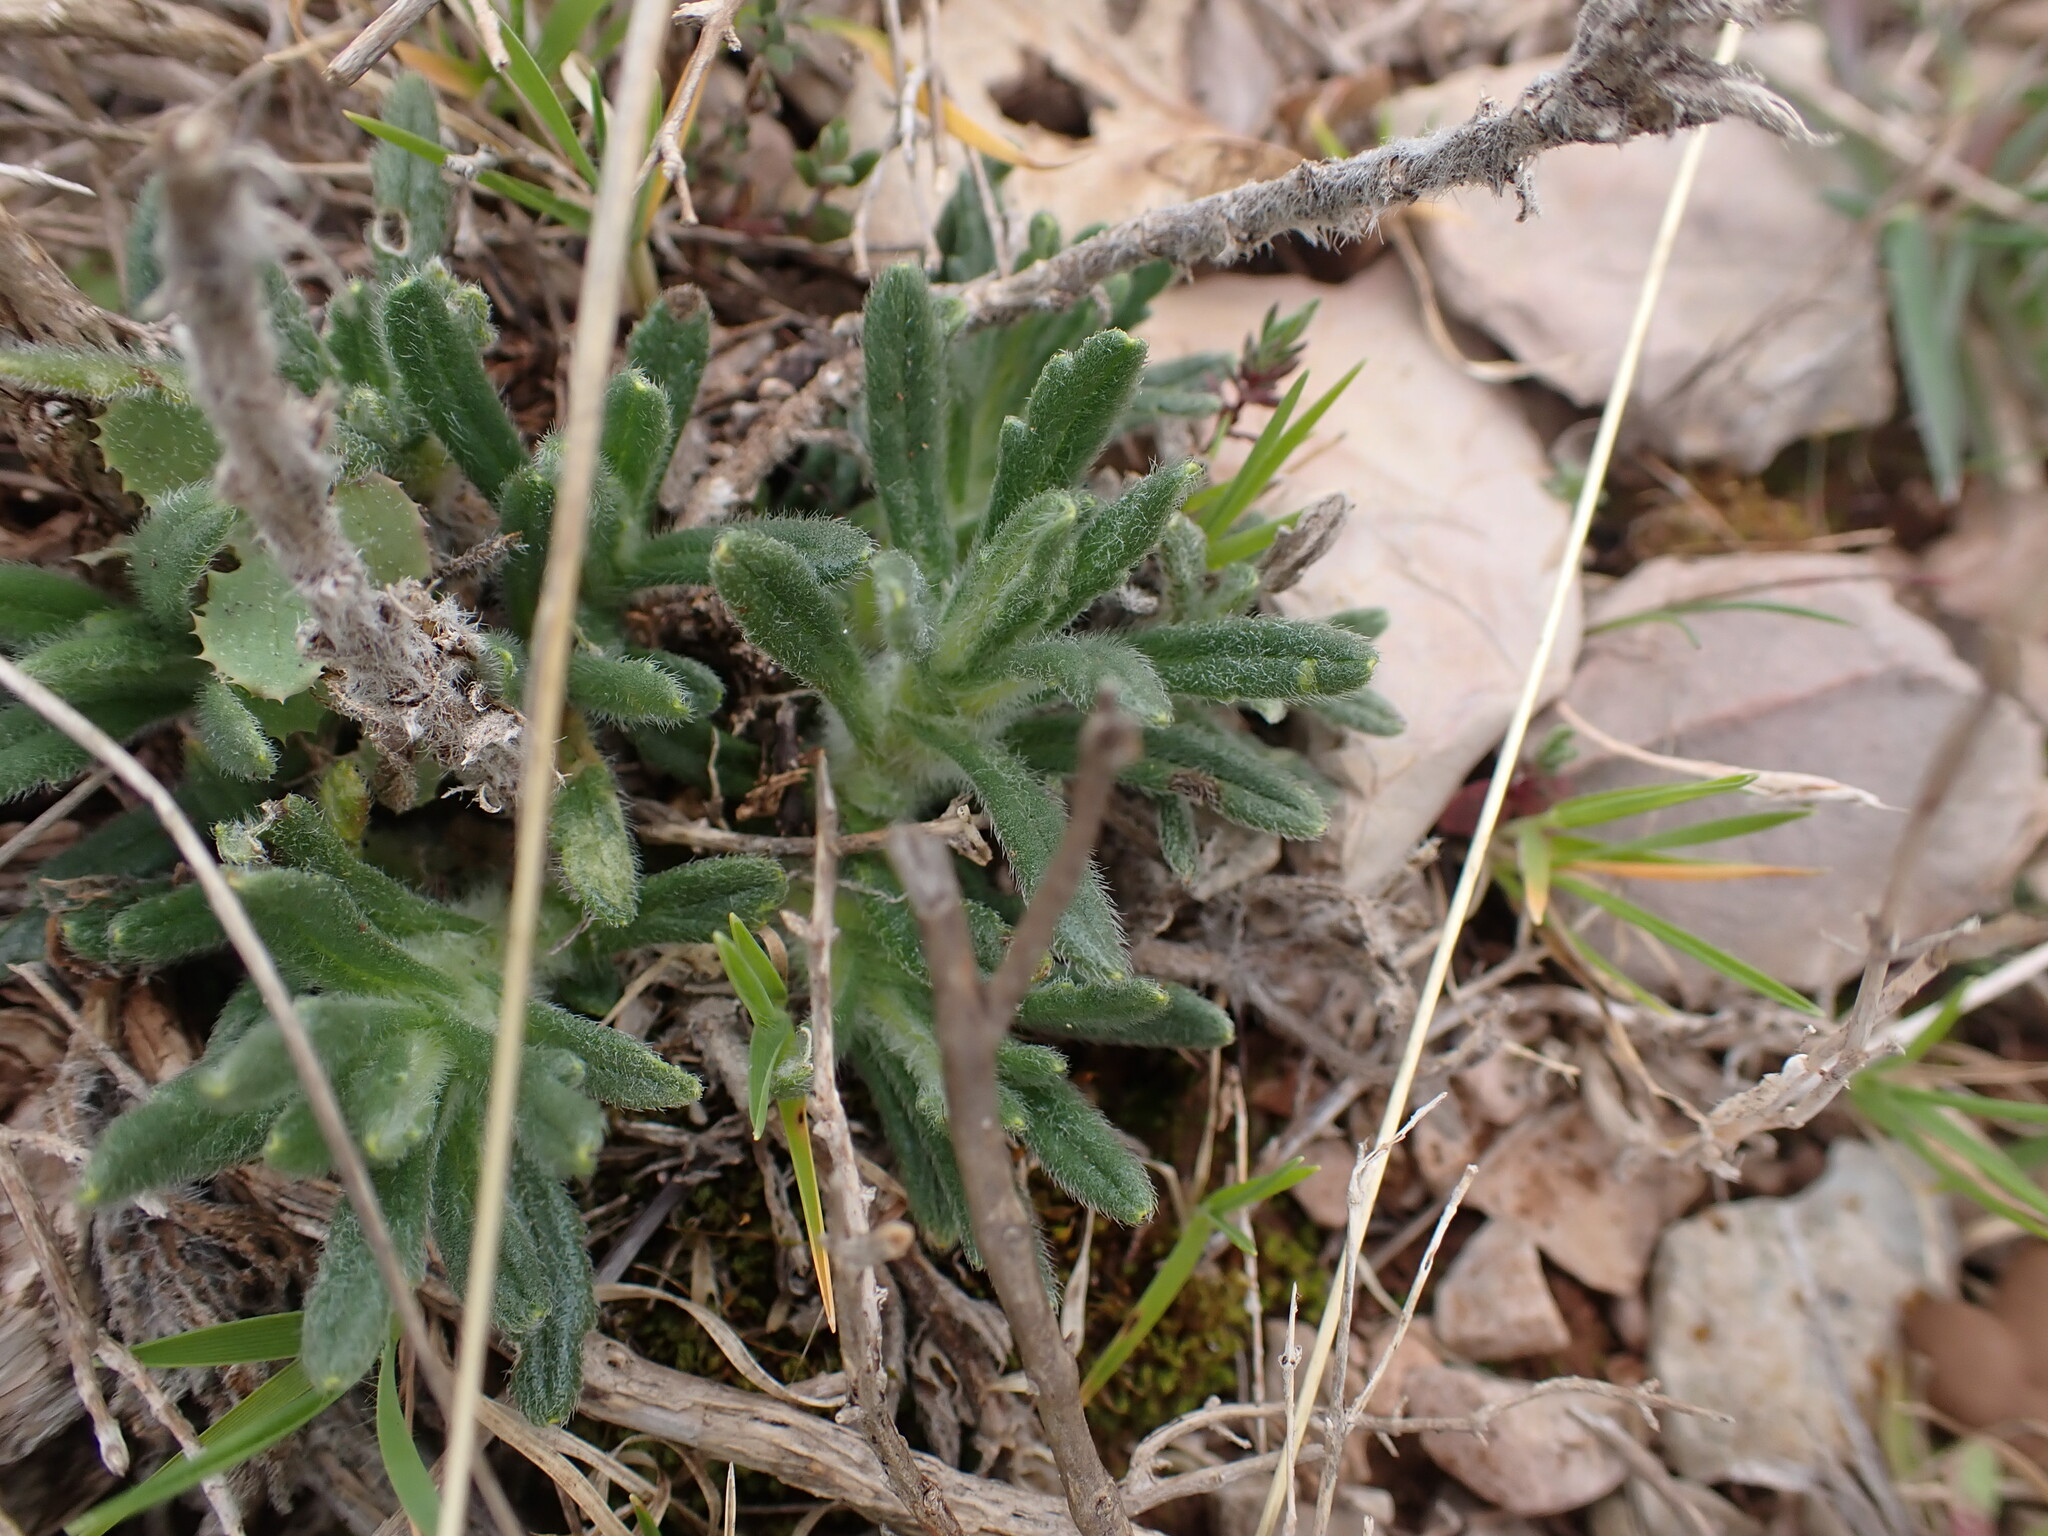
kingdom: Plantae
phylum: Tracheophyta
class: Magnoliopsida
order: Lamiales
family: Lamiaceae
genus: Ajuga
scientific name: Ajuga iva
